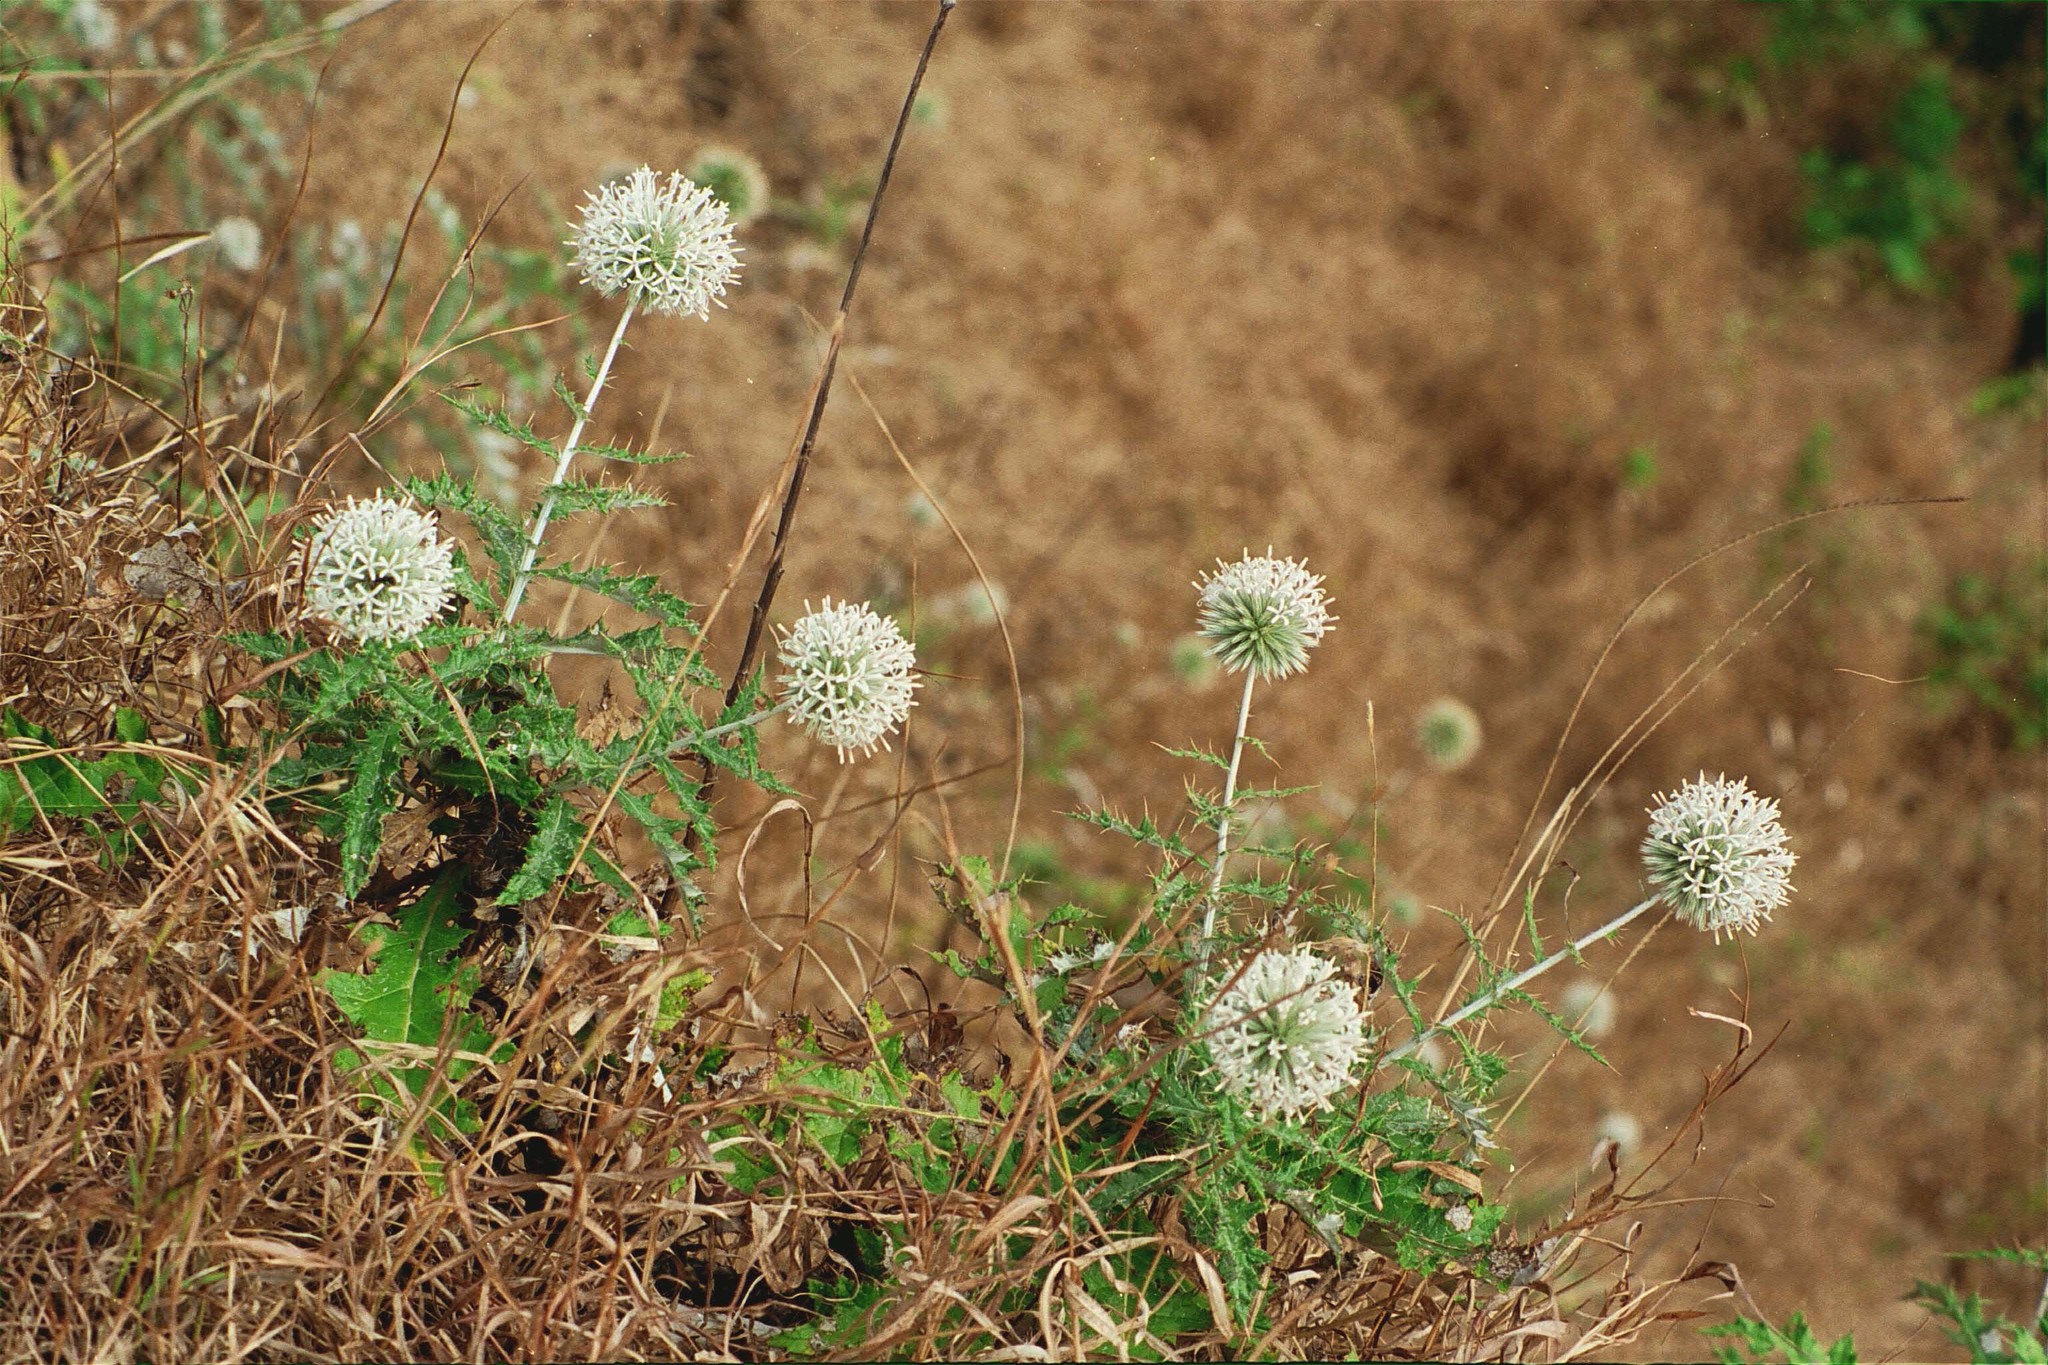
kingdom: Plantae
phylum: Tracheophyta
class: Magnoliopsida
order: Asterales
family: Asteraceae
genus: Echinops
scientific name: Echinops sahyadricus
